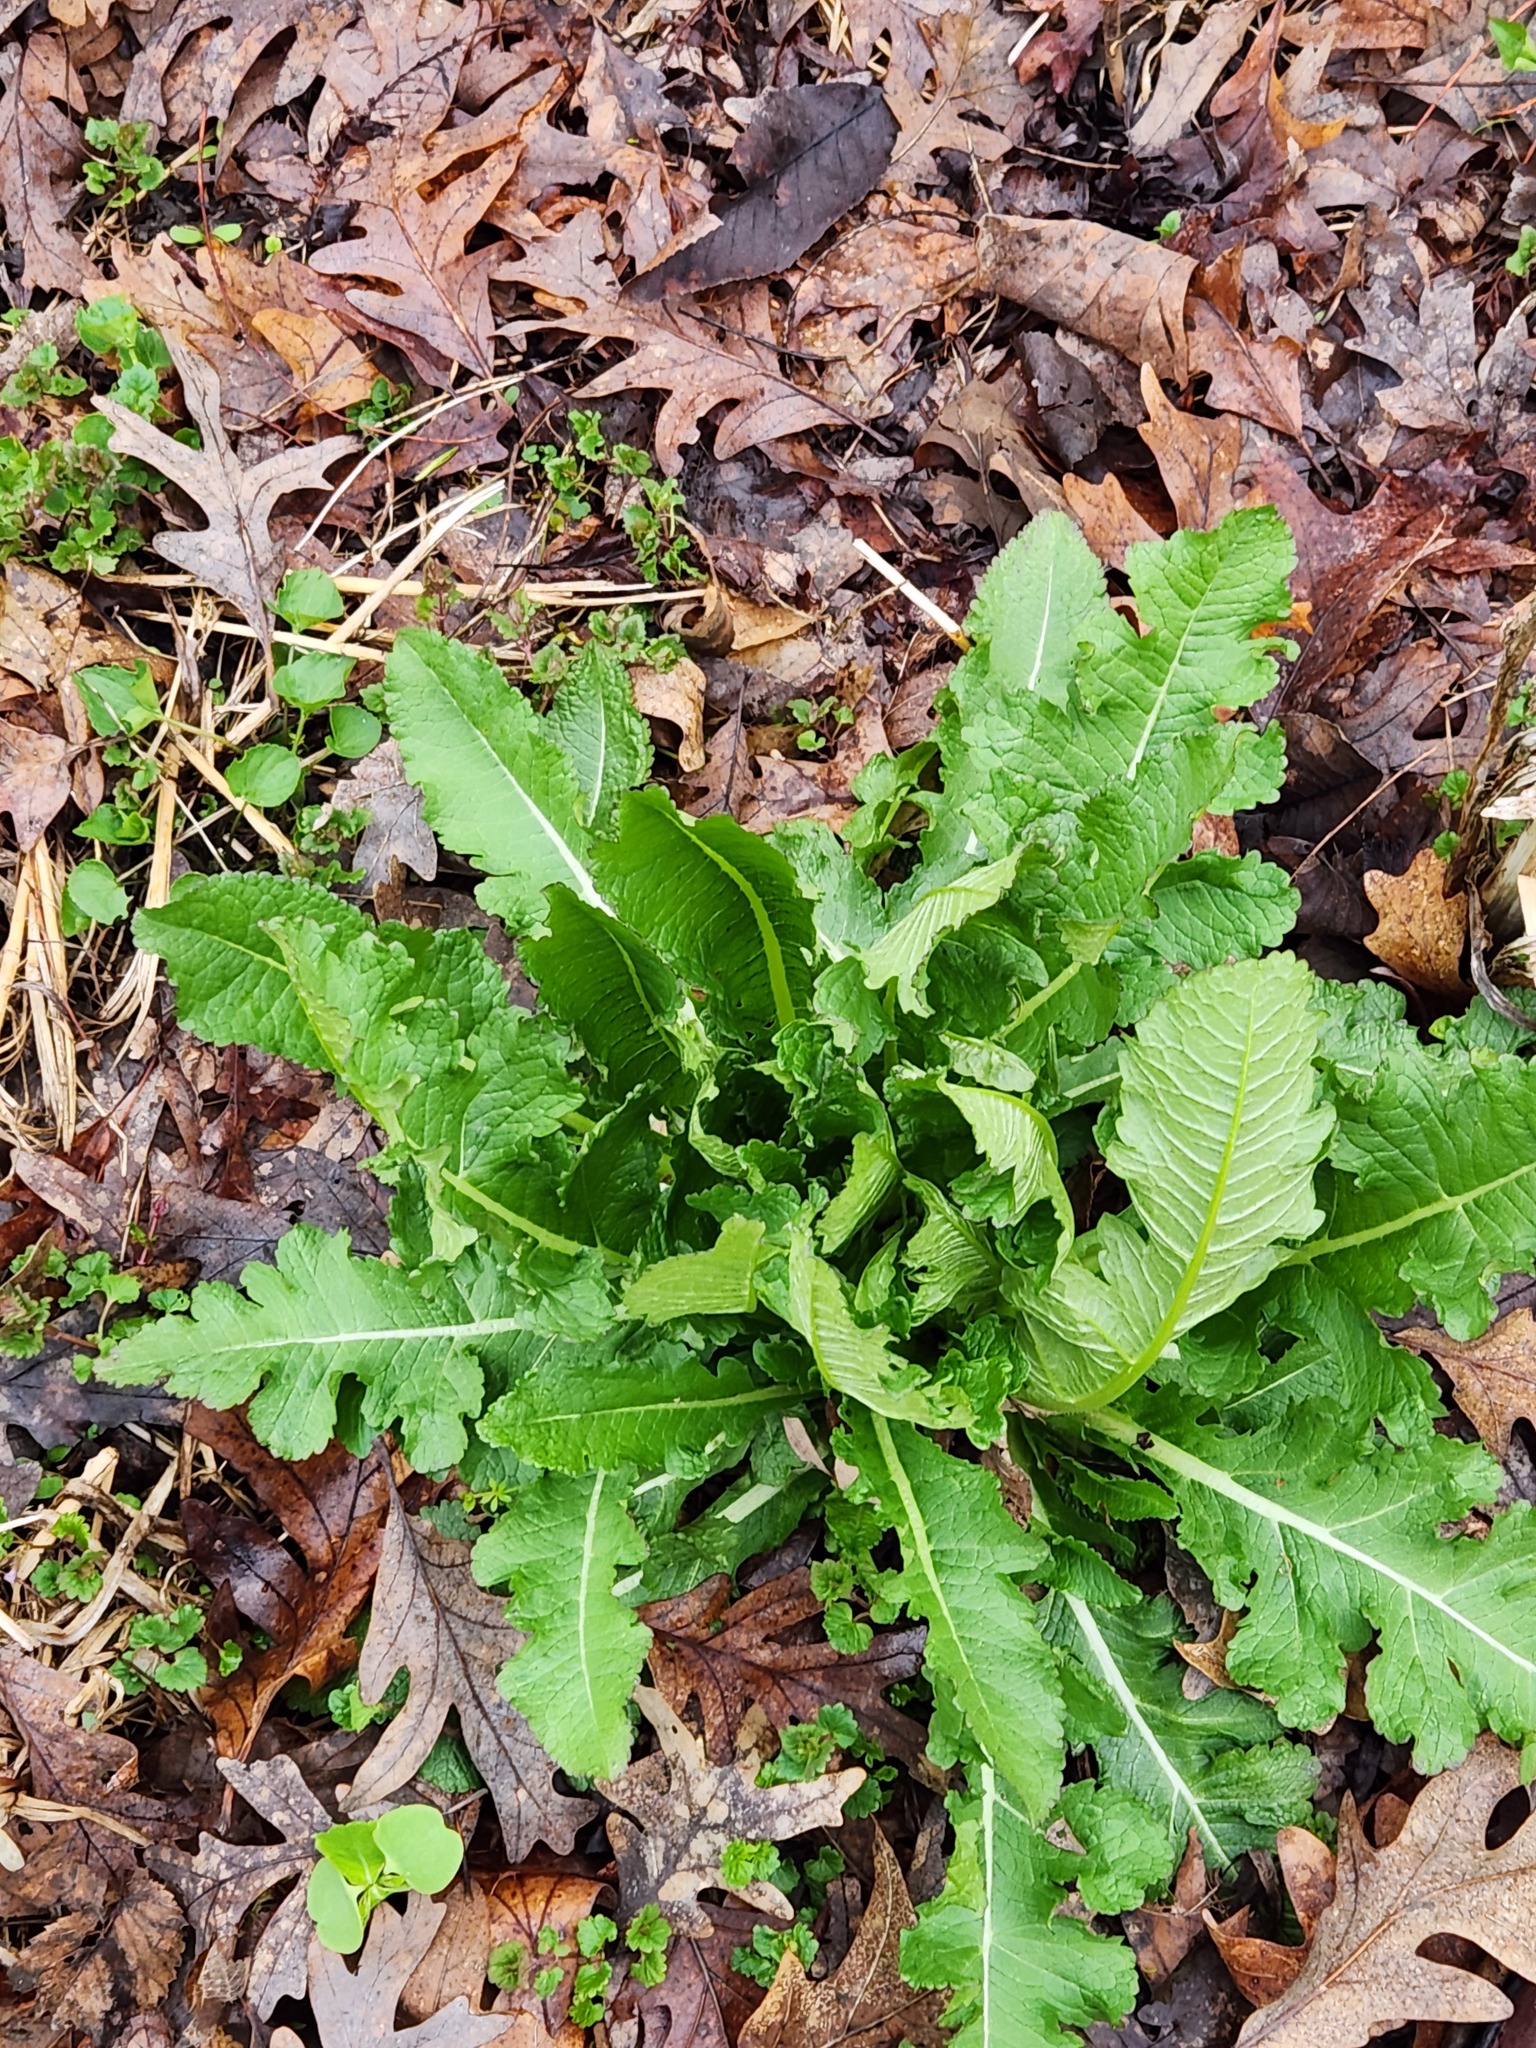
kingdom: Plantae
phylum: Tracheophyta
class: Magnoliopsida
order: Dipsacales
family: Caprifoliaceae
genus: Dipsacus
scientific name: Dipsacus laciniatus
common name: Cut-leaved teasel
